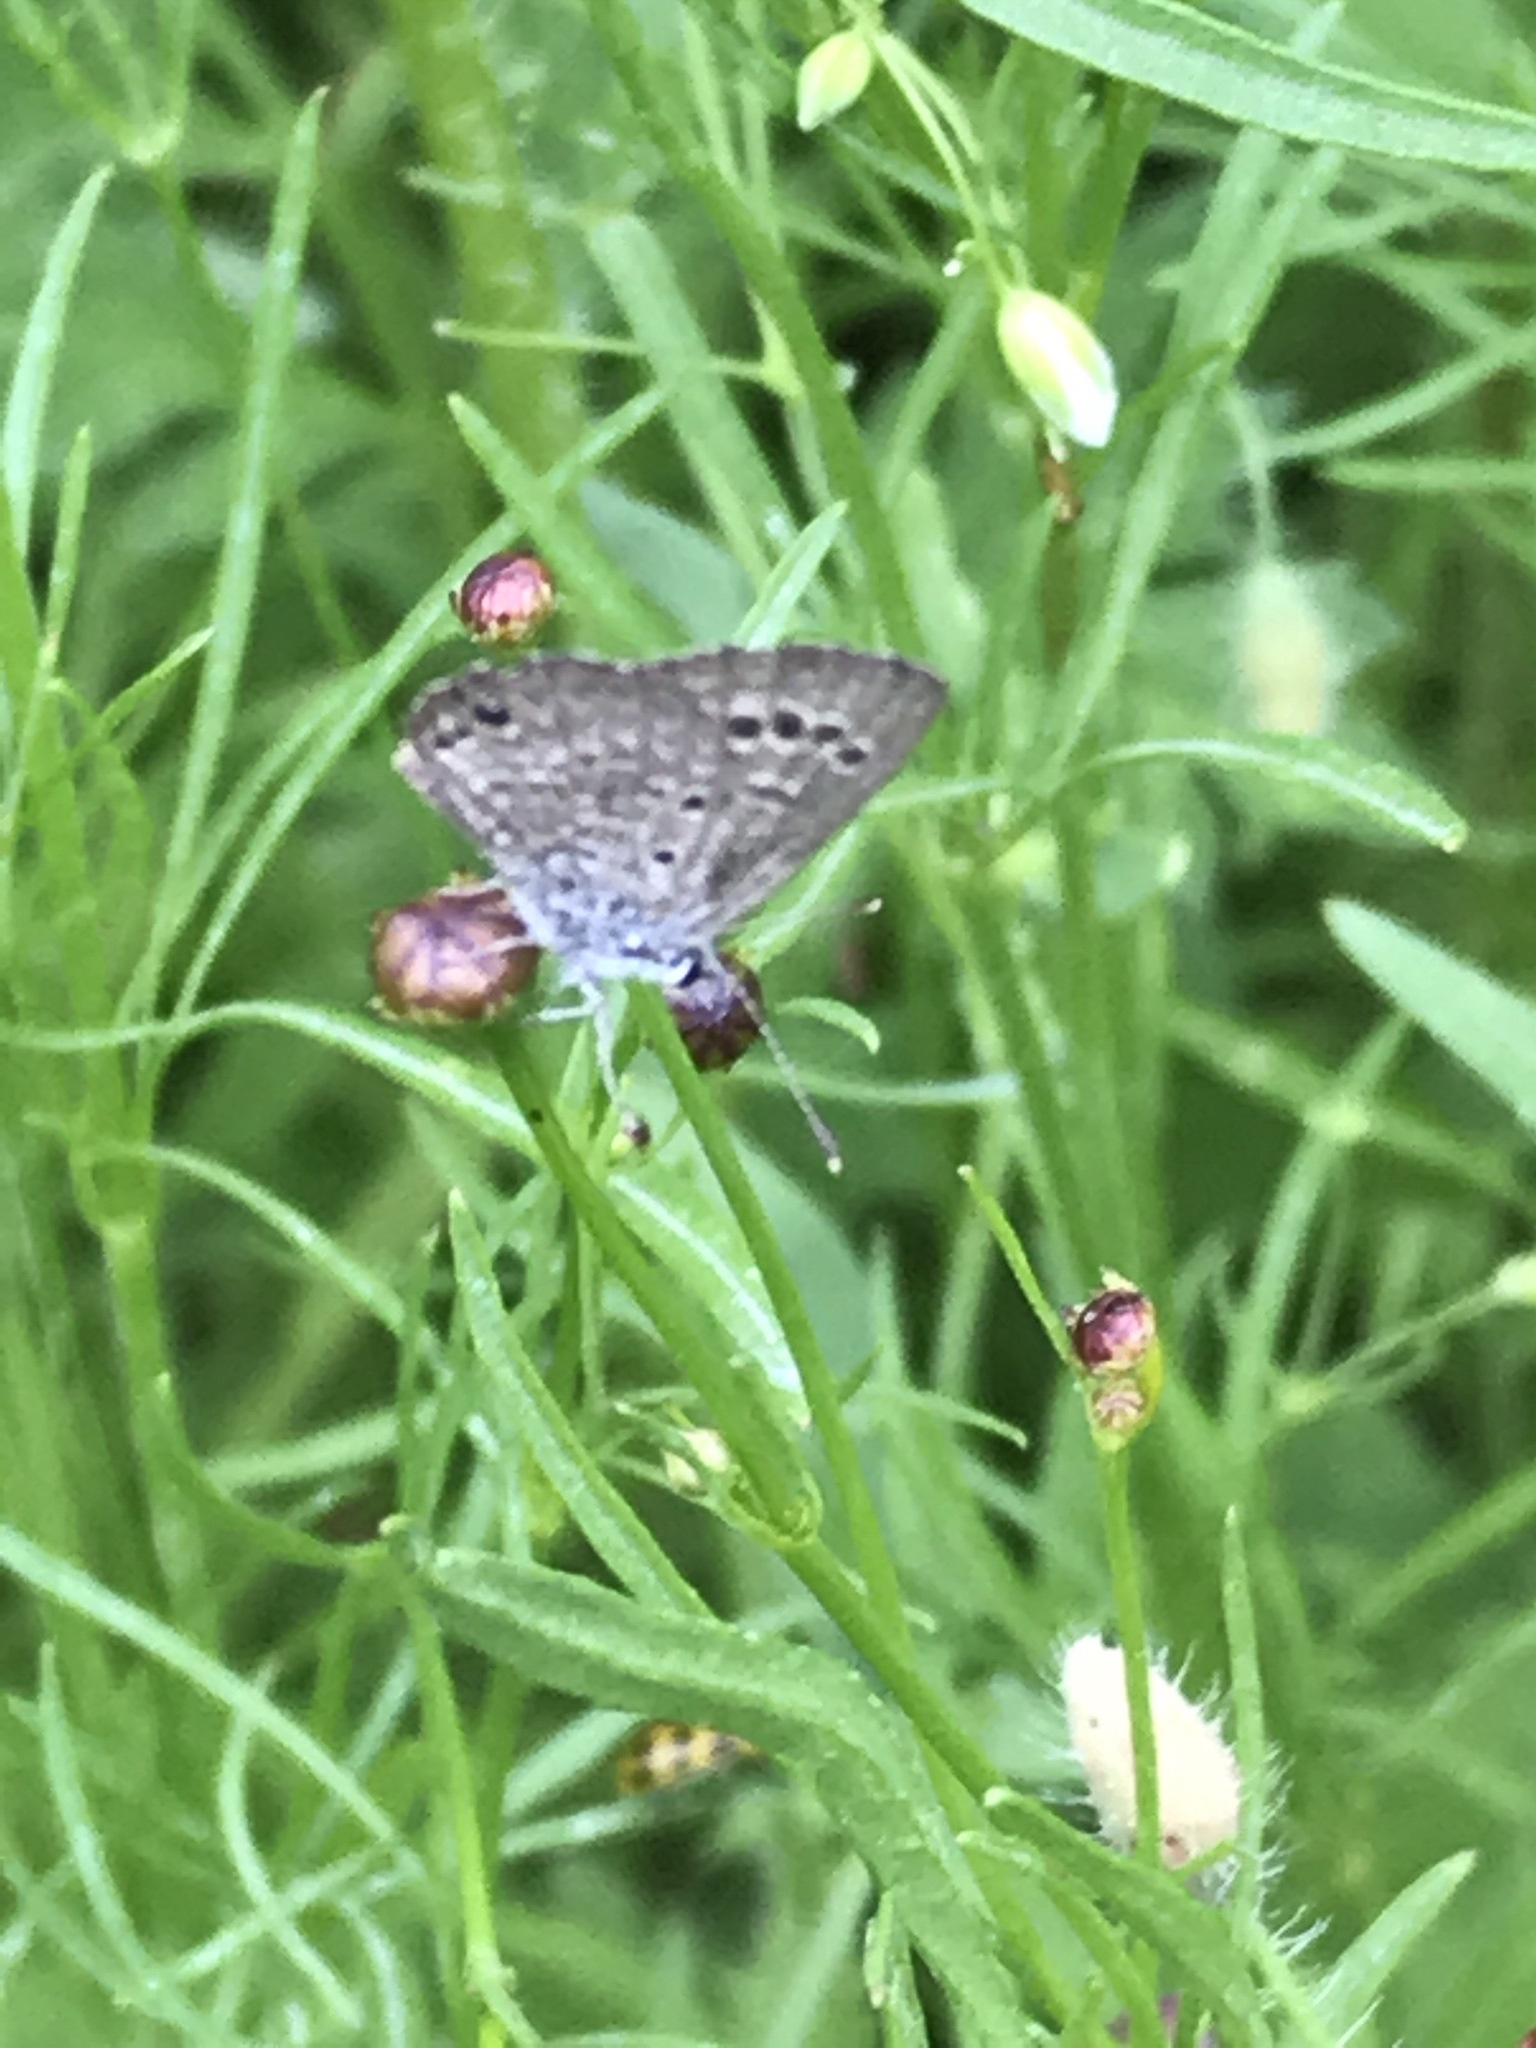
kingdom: Animalia
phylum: Arthropoda
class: Insecta
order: Lepidoptera
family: Lycaenidae
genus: Echinargus
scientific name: Echinargus isola
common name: Reakirt's blue
